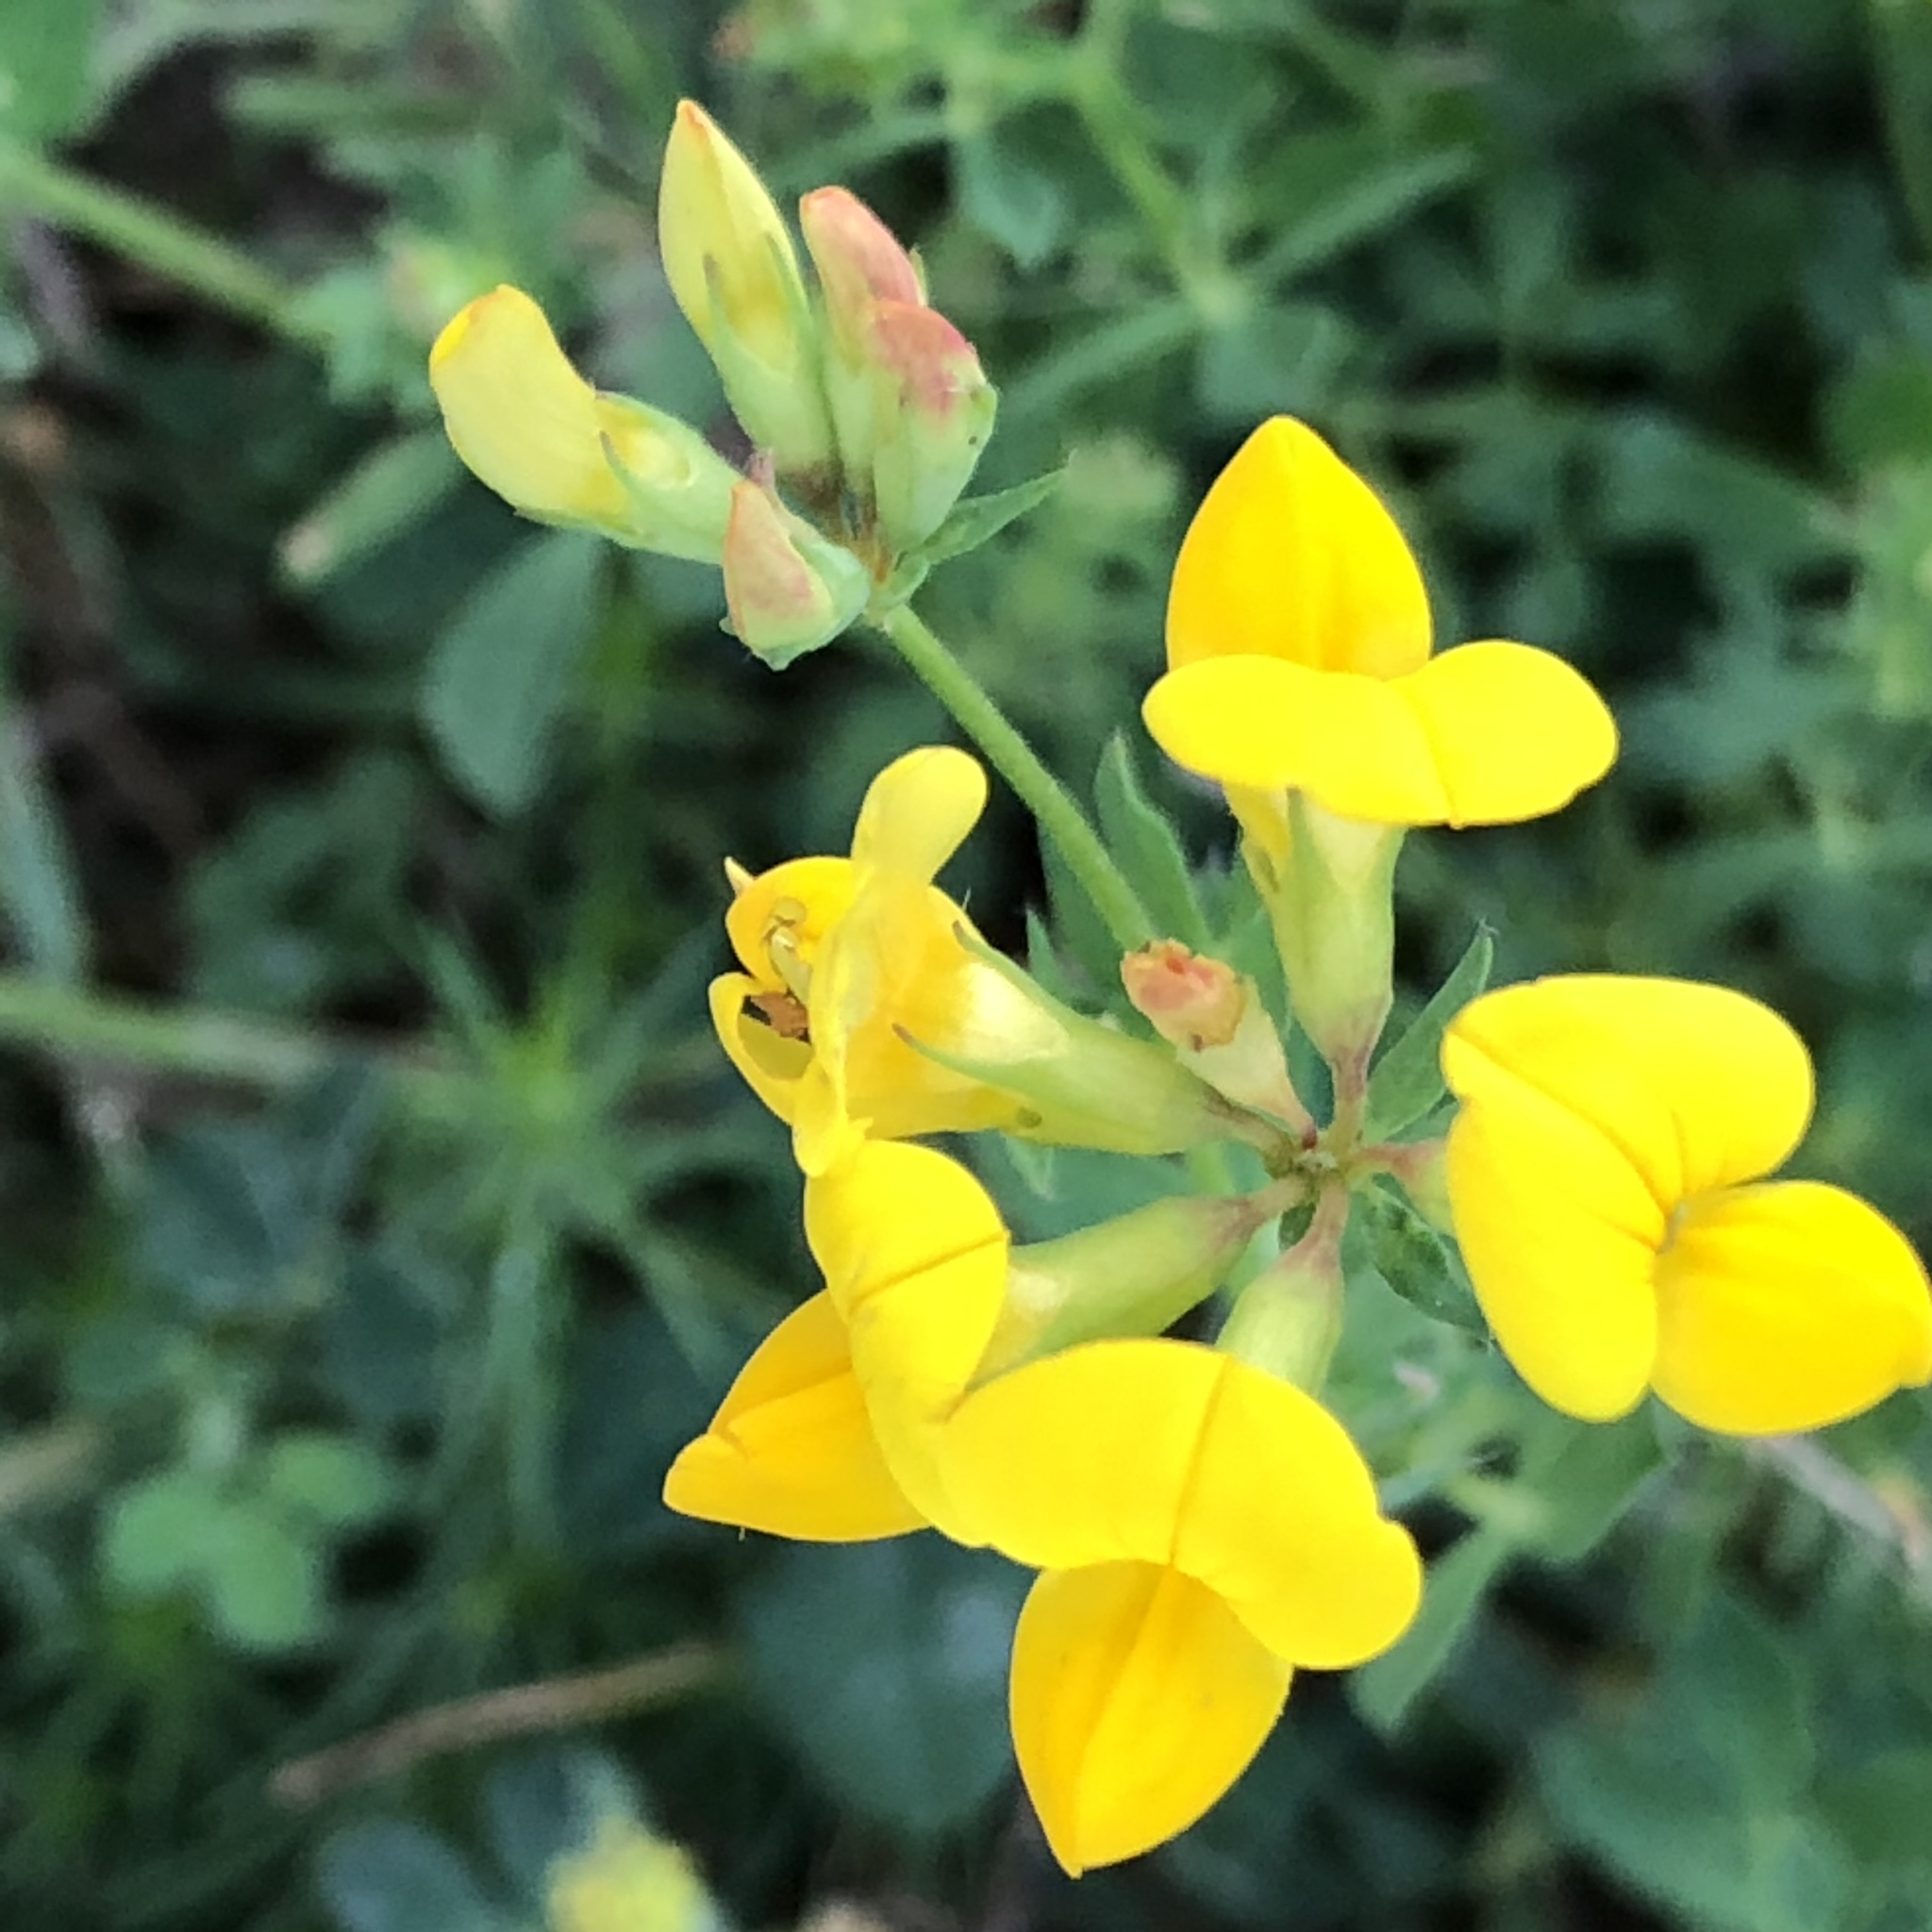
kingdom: Plantae
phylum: Tracheophyta
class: Magnoliopsida
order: Fabales
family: Fabaceae
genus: Lotus
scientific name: Lotus corniculatus
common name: Common bird's-foot-trefoil
